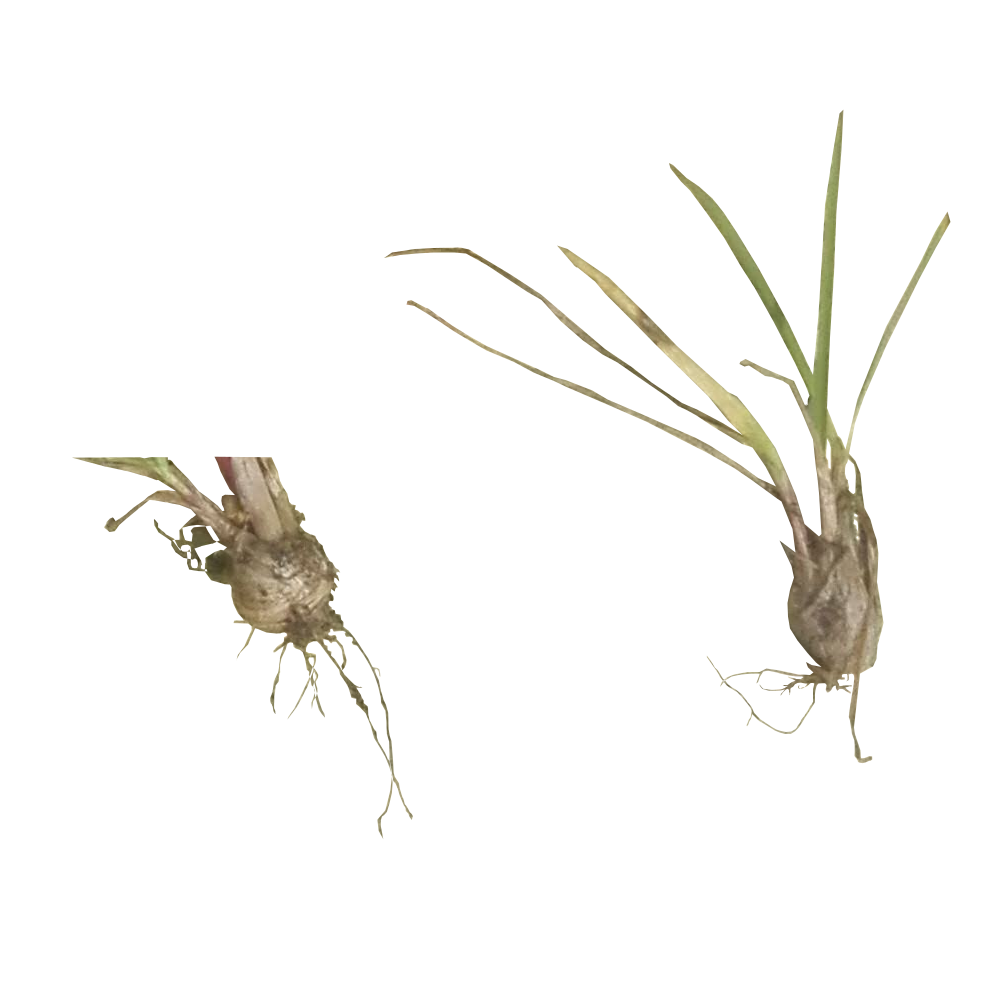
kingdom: Plantae
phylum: Tracheophyta
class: Liliopsida
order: Poales
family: Poaceae
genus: Poa
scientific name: Poa bulbosa
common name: Bulbous bluegrass
